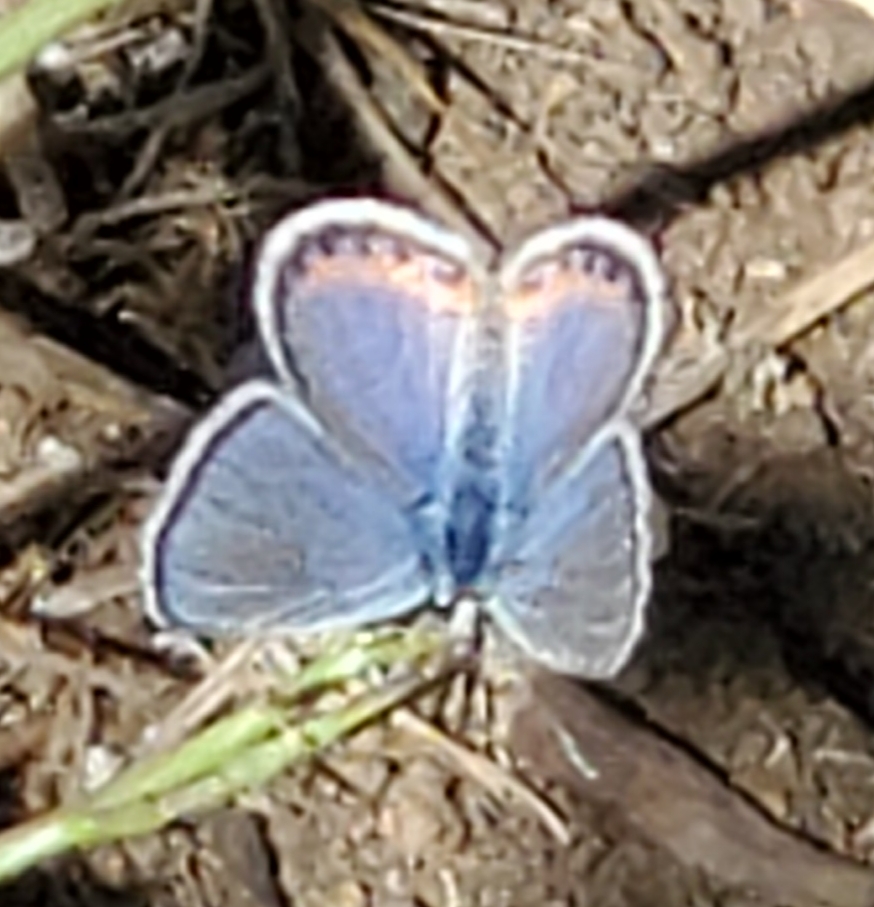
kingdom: Animalia
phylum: Arthropoda
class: Insecta
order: Lepidoptera
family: Lycaenidae
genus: Icaricia
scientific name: Icaricia acmon
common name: Acmon blue
